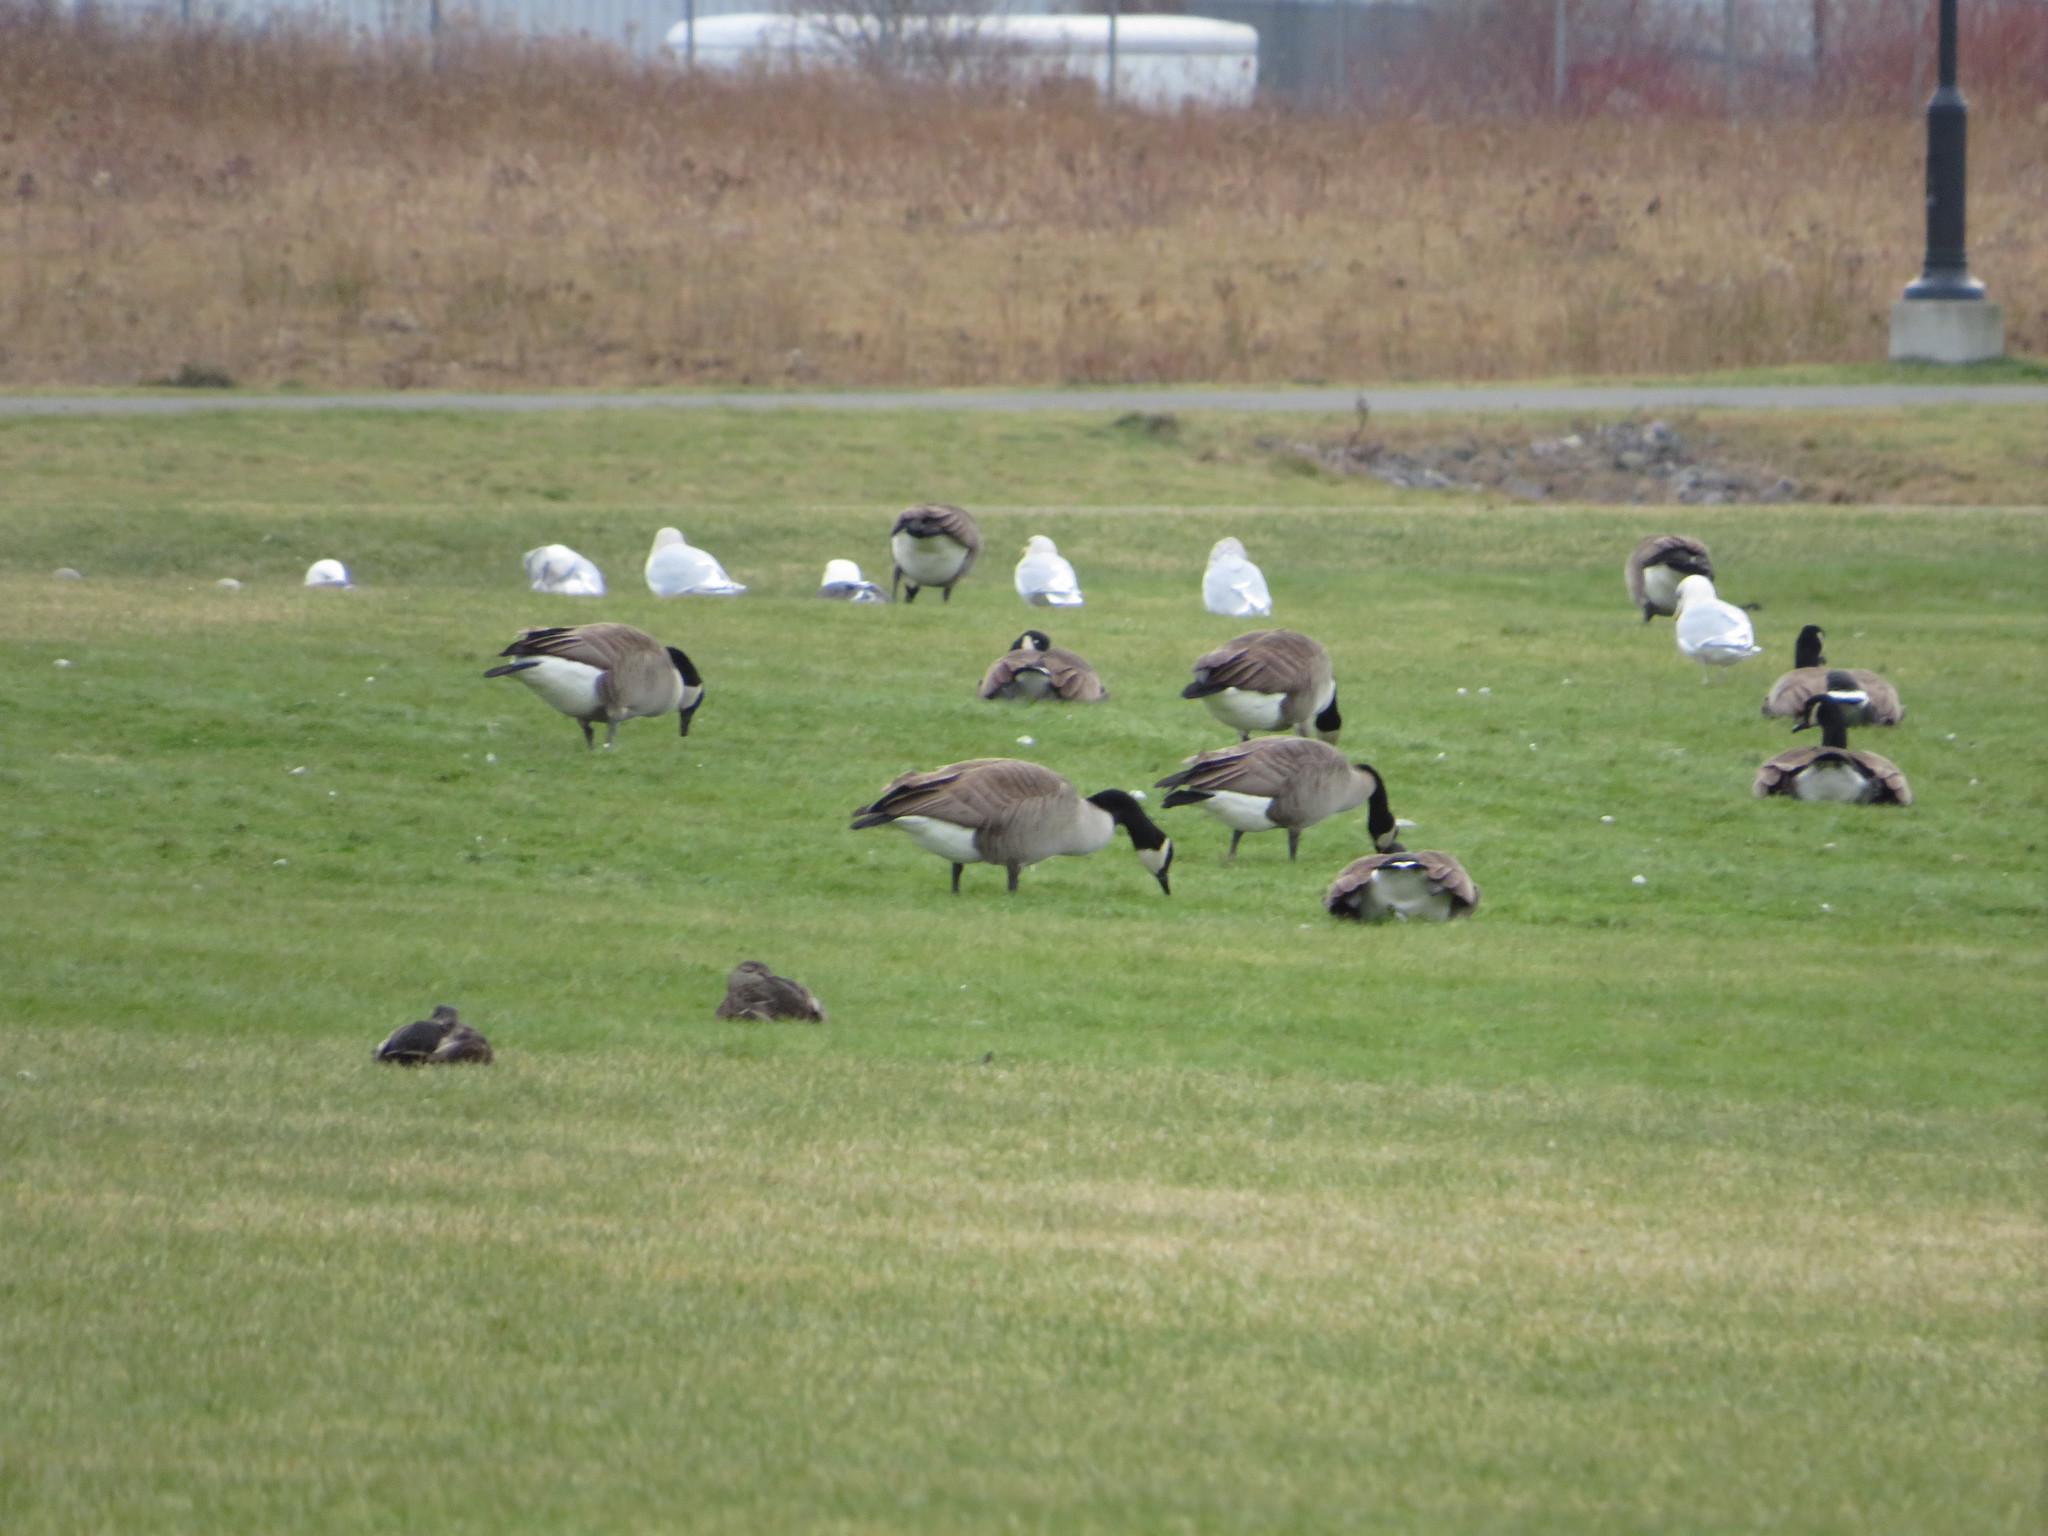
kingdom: Animalia
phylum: Chordata
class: Aves
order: Anseriformes
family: Anatidae
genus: Branta
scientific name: Branta canadensis
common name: Canada goose
